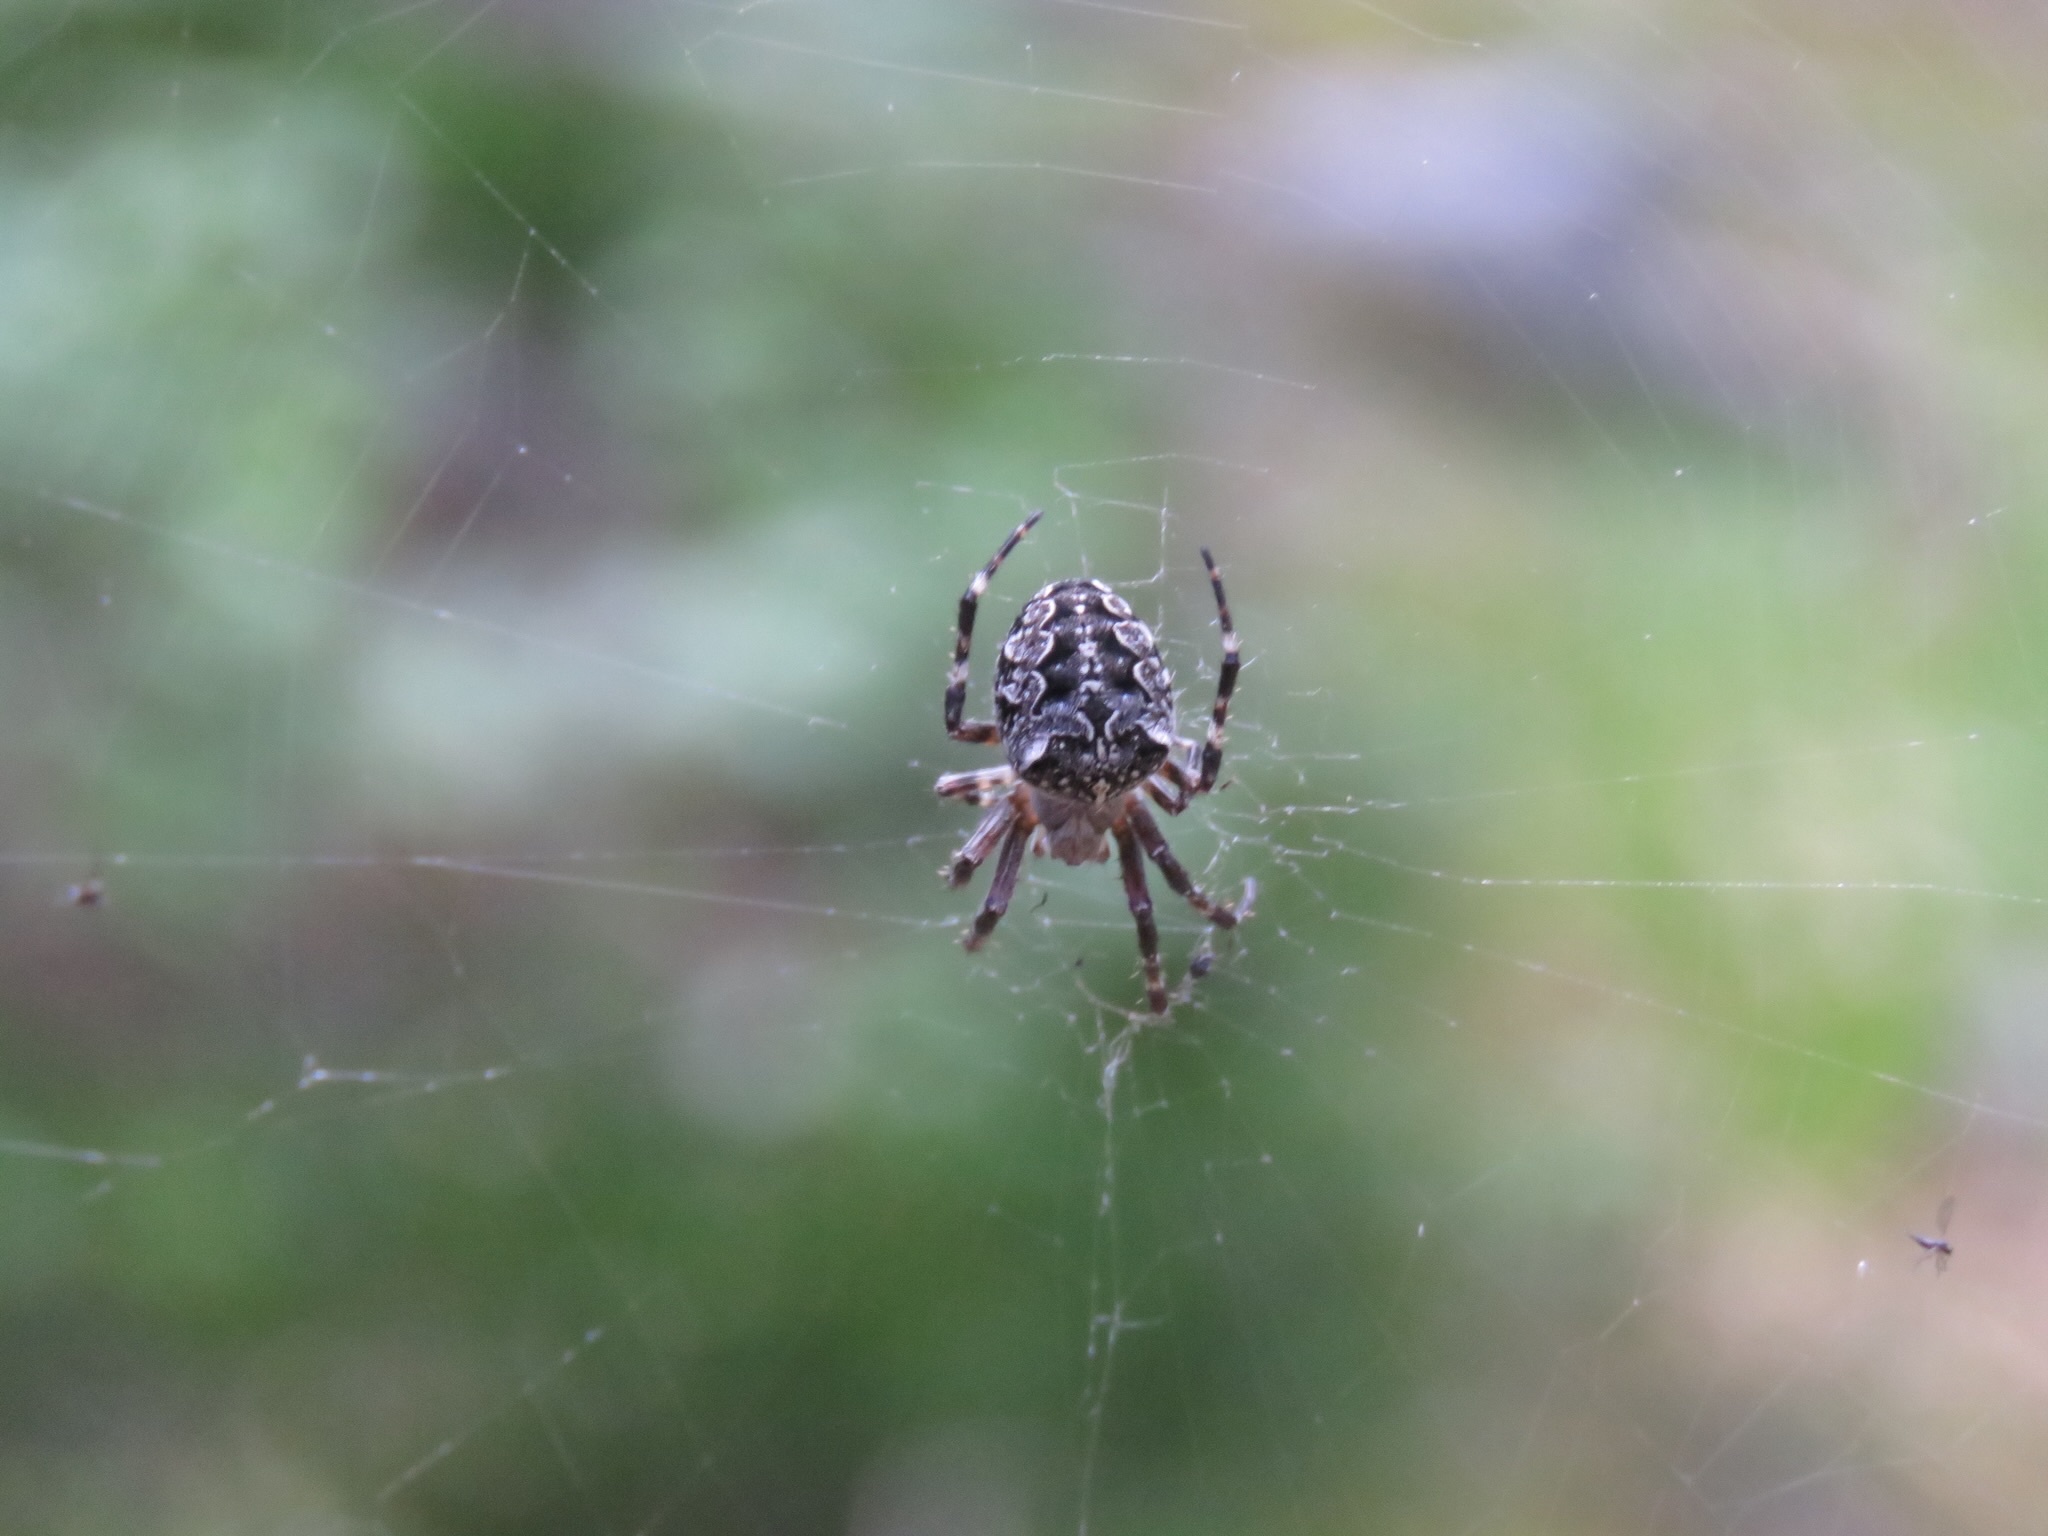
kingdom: Animalia
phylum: Arthropoda
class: Arachnida
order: Araneae
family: Araneidae
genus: Araneus
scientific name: Araneus nordmanni
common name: Nordmann's orbweaver
